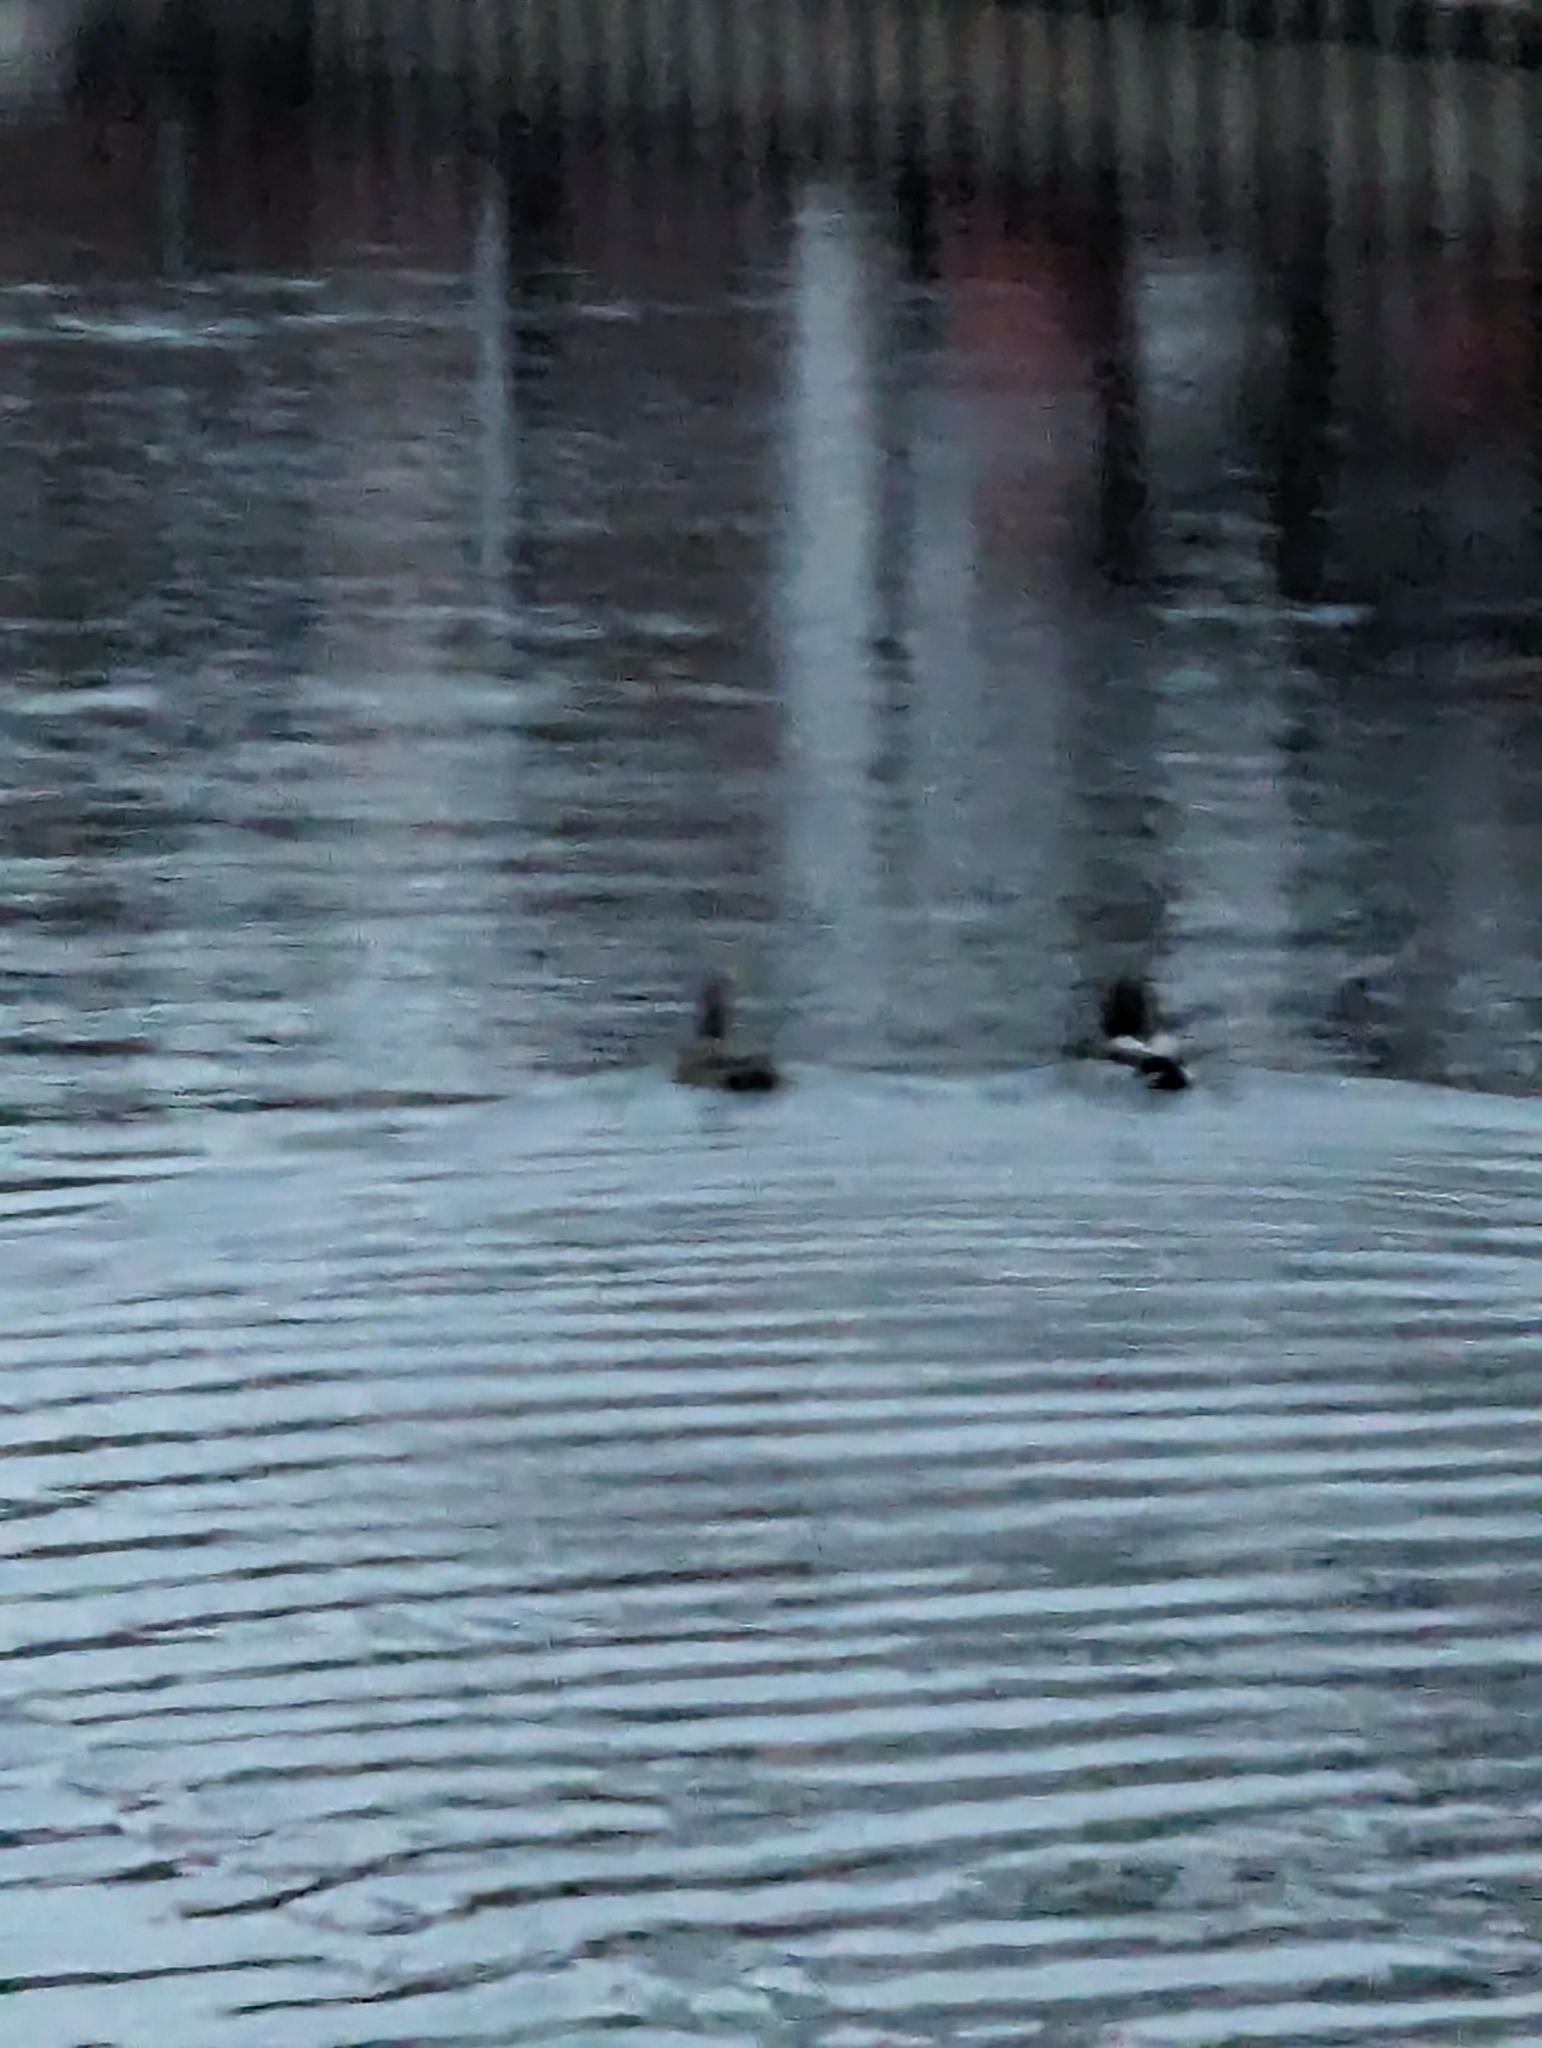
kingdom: Animalia
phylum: Chordata
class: Aves
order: Anseriformes
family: Anatidae
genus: Anas
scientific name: Anas platyrhynchos
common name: Mallard
